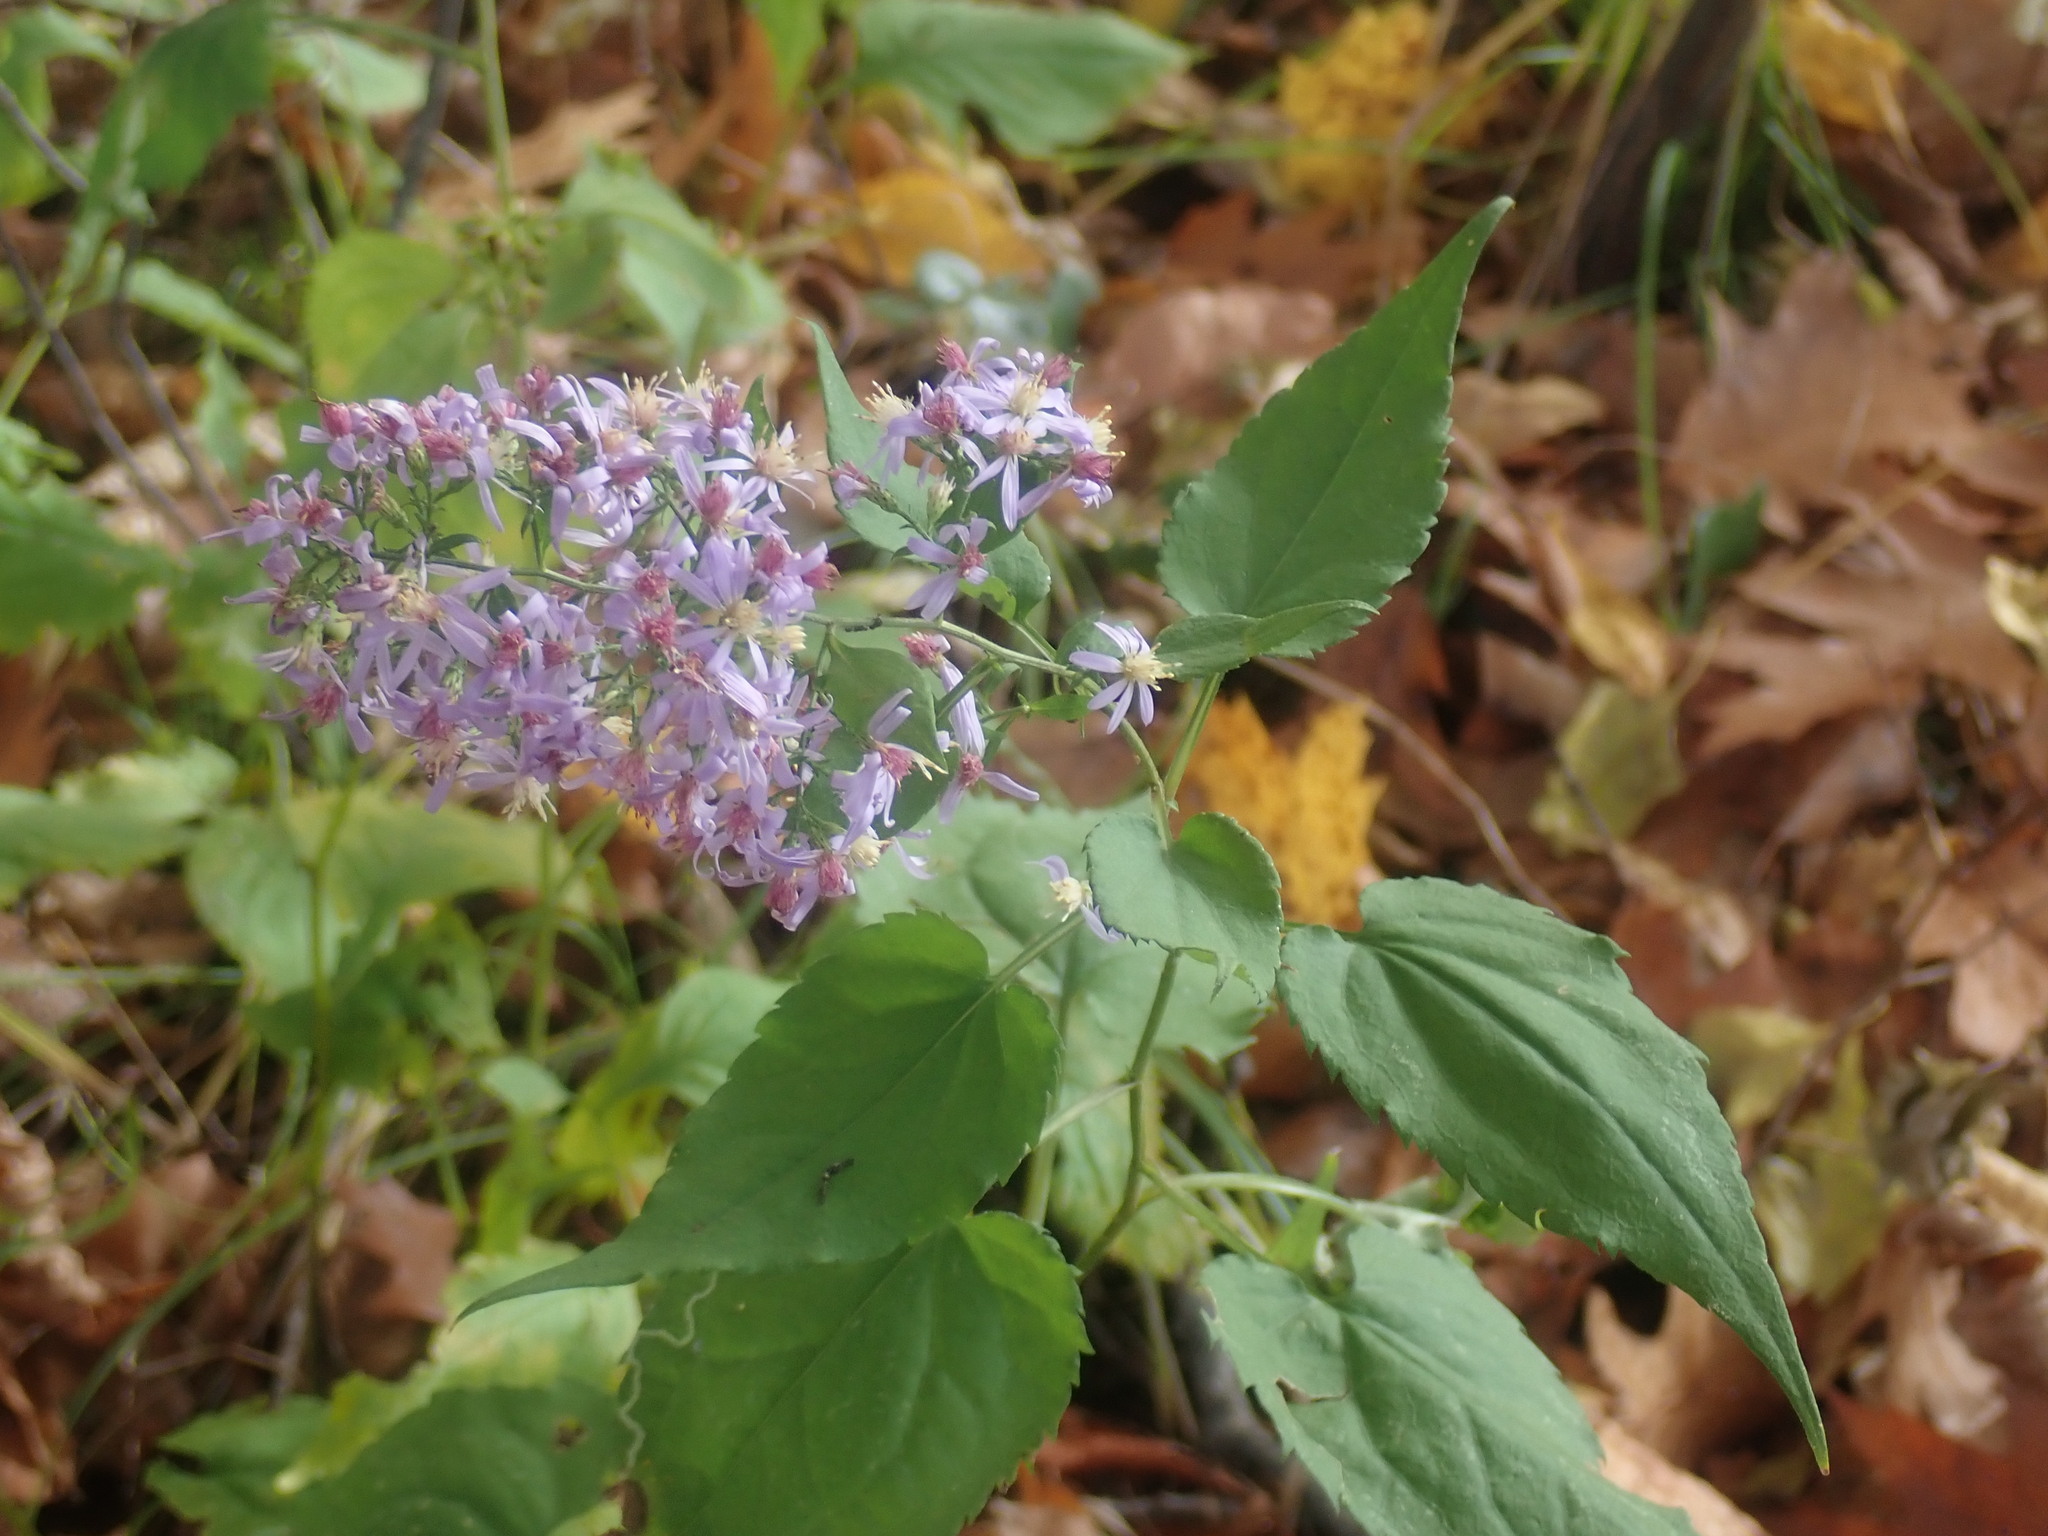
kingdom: Plantae
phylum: Tracheophyta
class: Magnoliopsida
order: Asterales
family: Asteraceae
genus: Symphyotrichum
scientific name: Symphyotrichum cordifolium
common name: Beeweed
